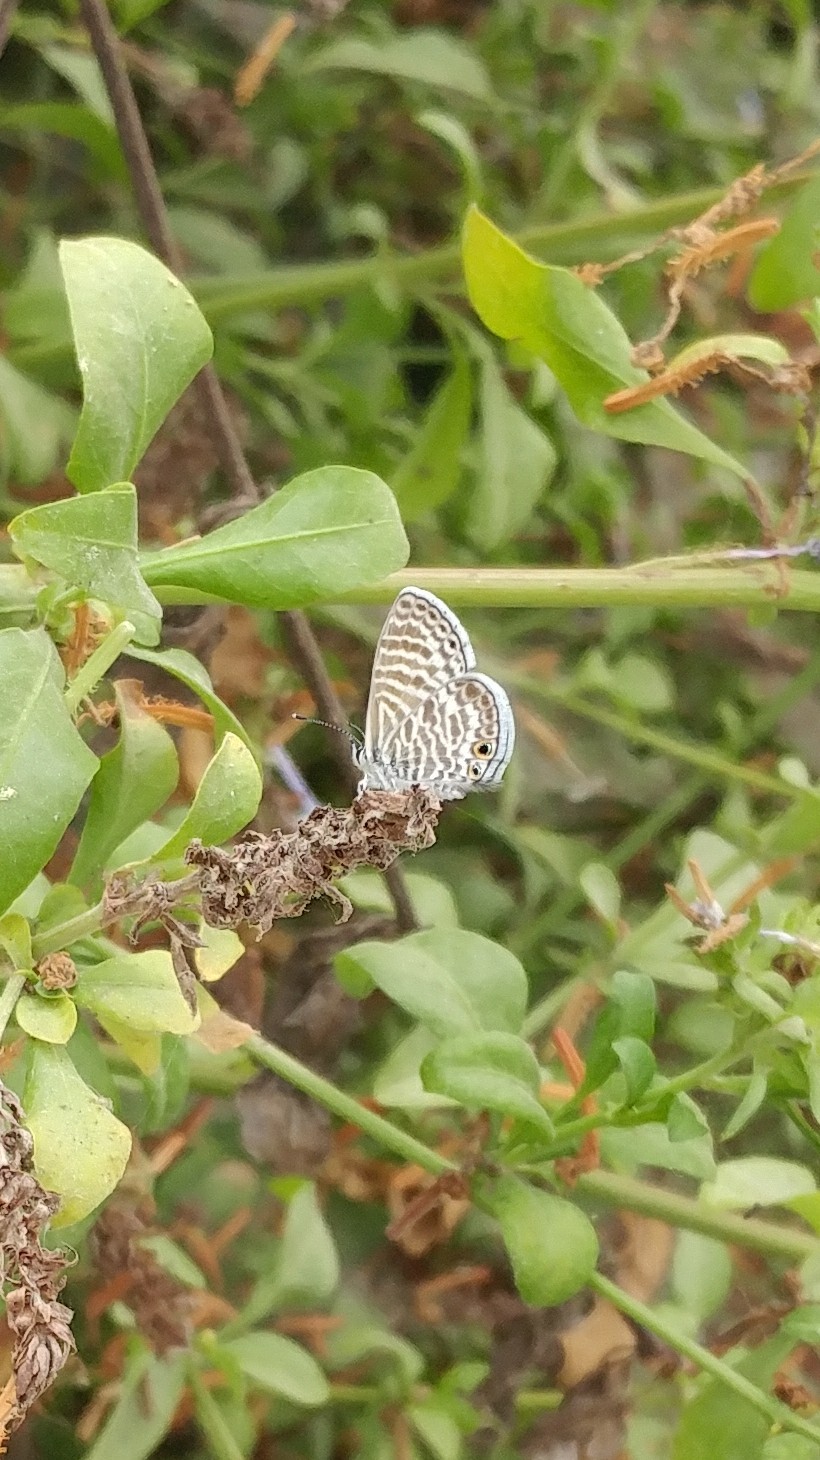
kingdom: Animalia
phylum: Arthropoda
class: Insecta
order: Lepidoptera
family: Lycaenidae
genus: Leptotes
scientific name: Leptotes marina
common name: Marine blue
